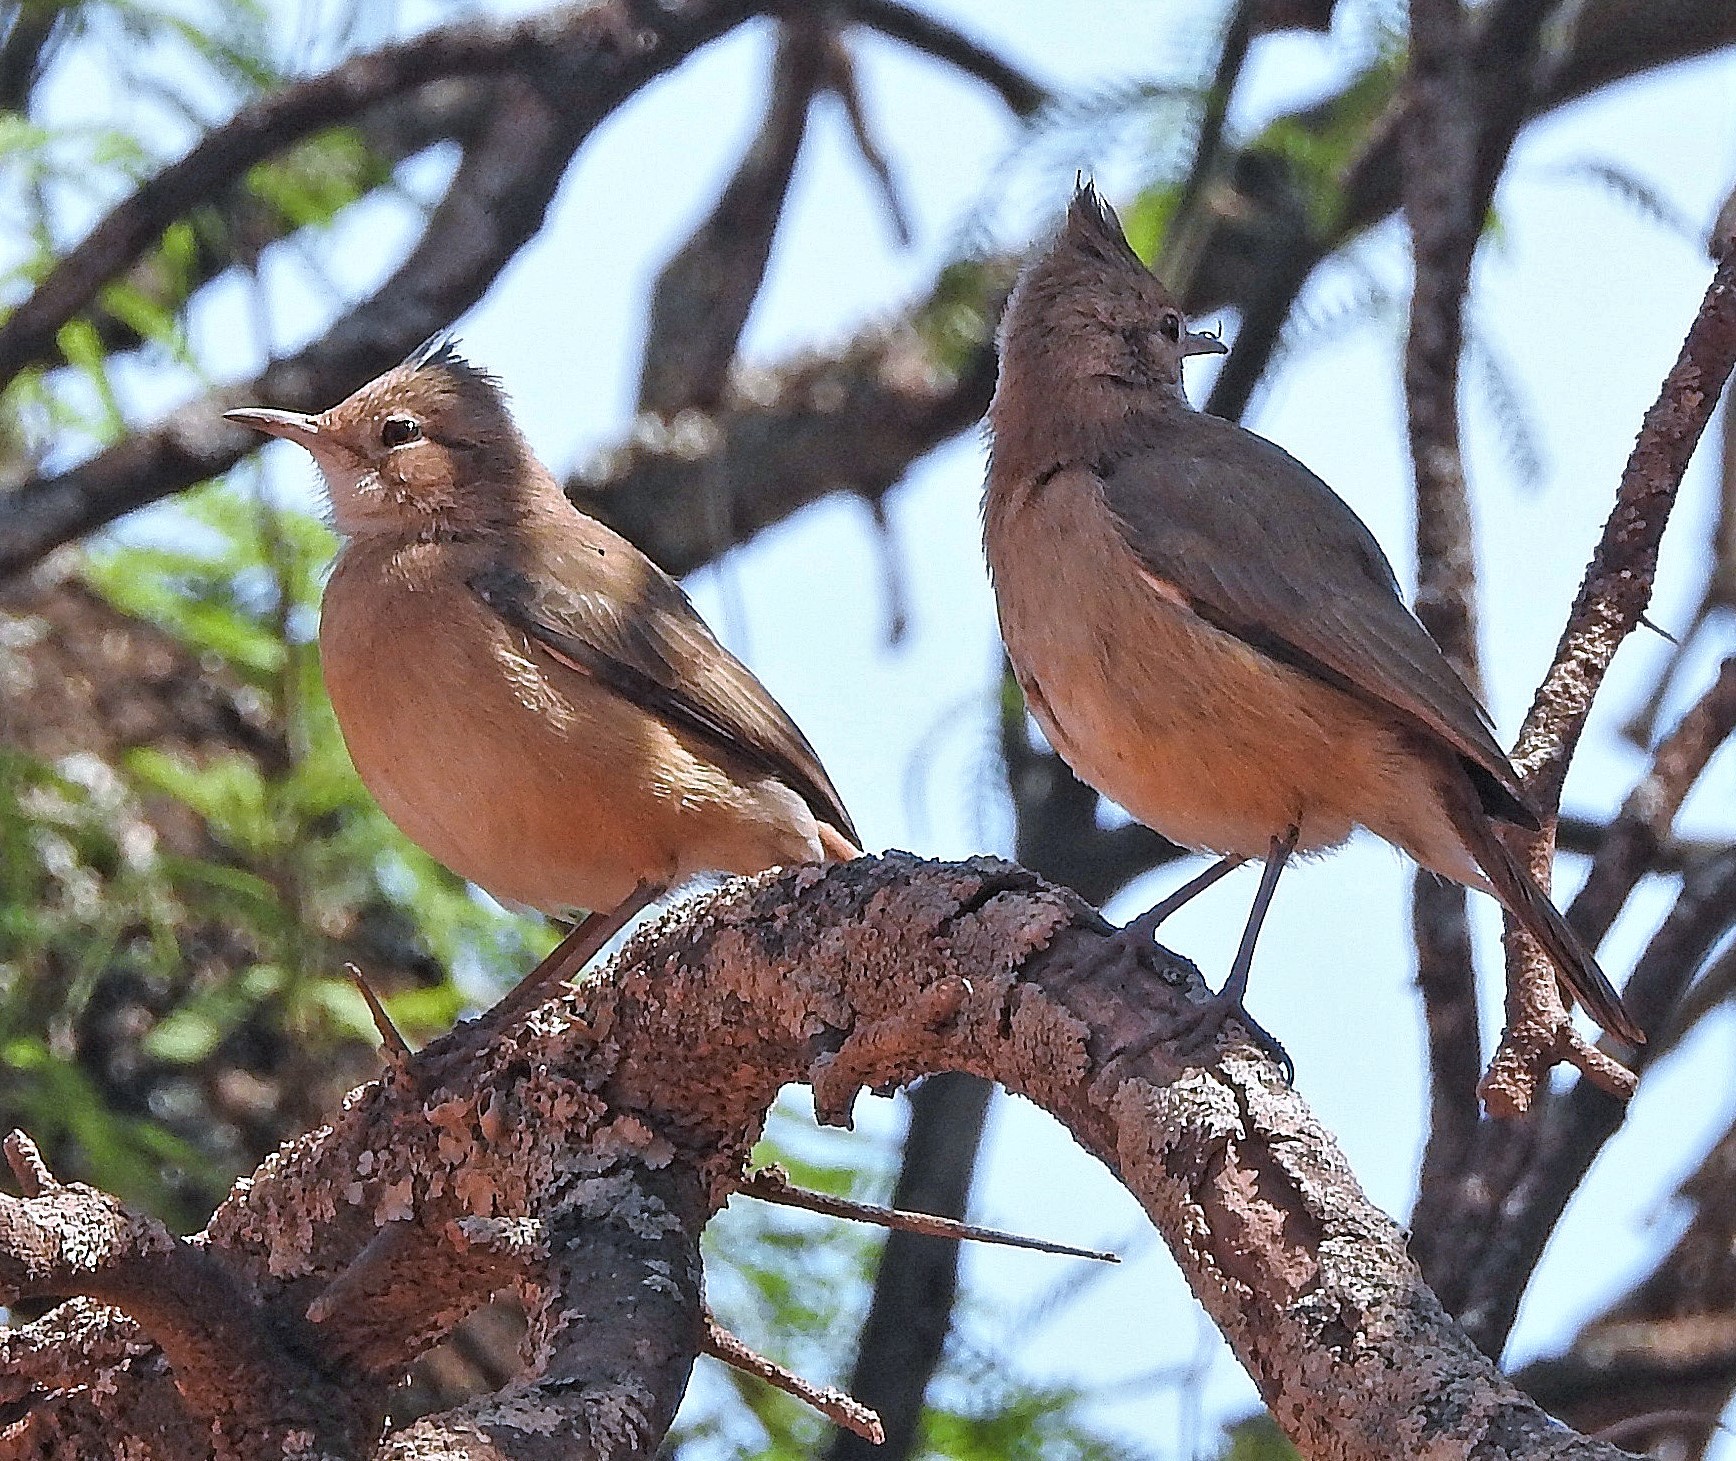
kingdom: Animalia
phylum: Chordata
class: Aves
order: Passeriformes
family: Furnariidae
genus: Furnarius
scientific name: Furnarius cristatus
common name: Crested hornero
